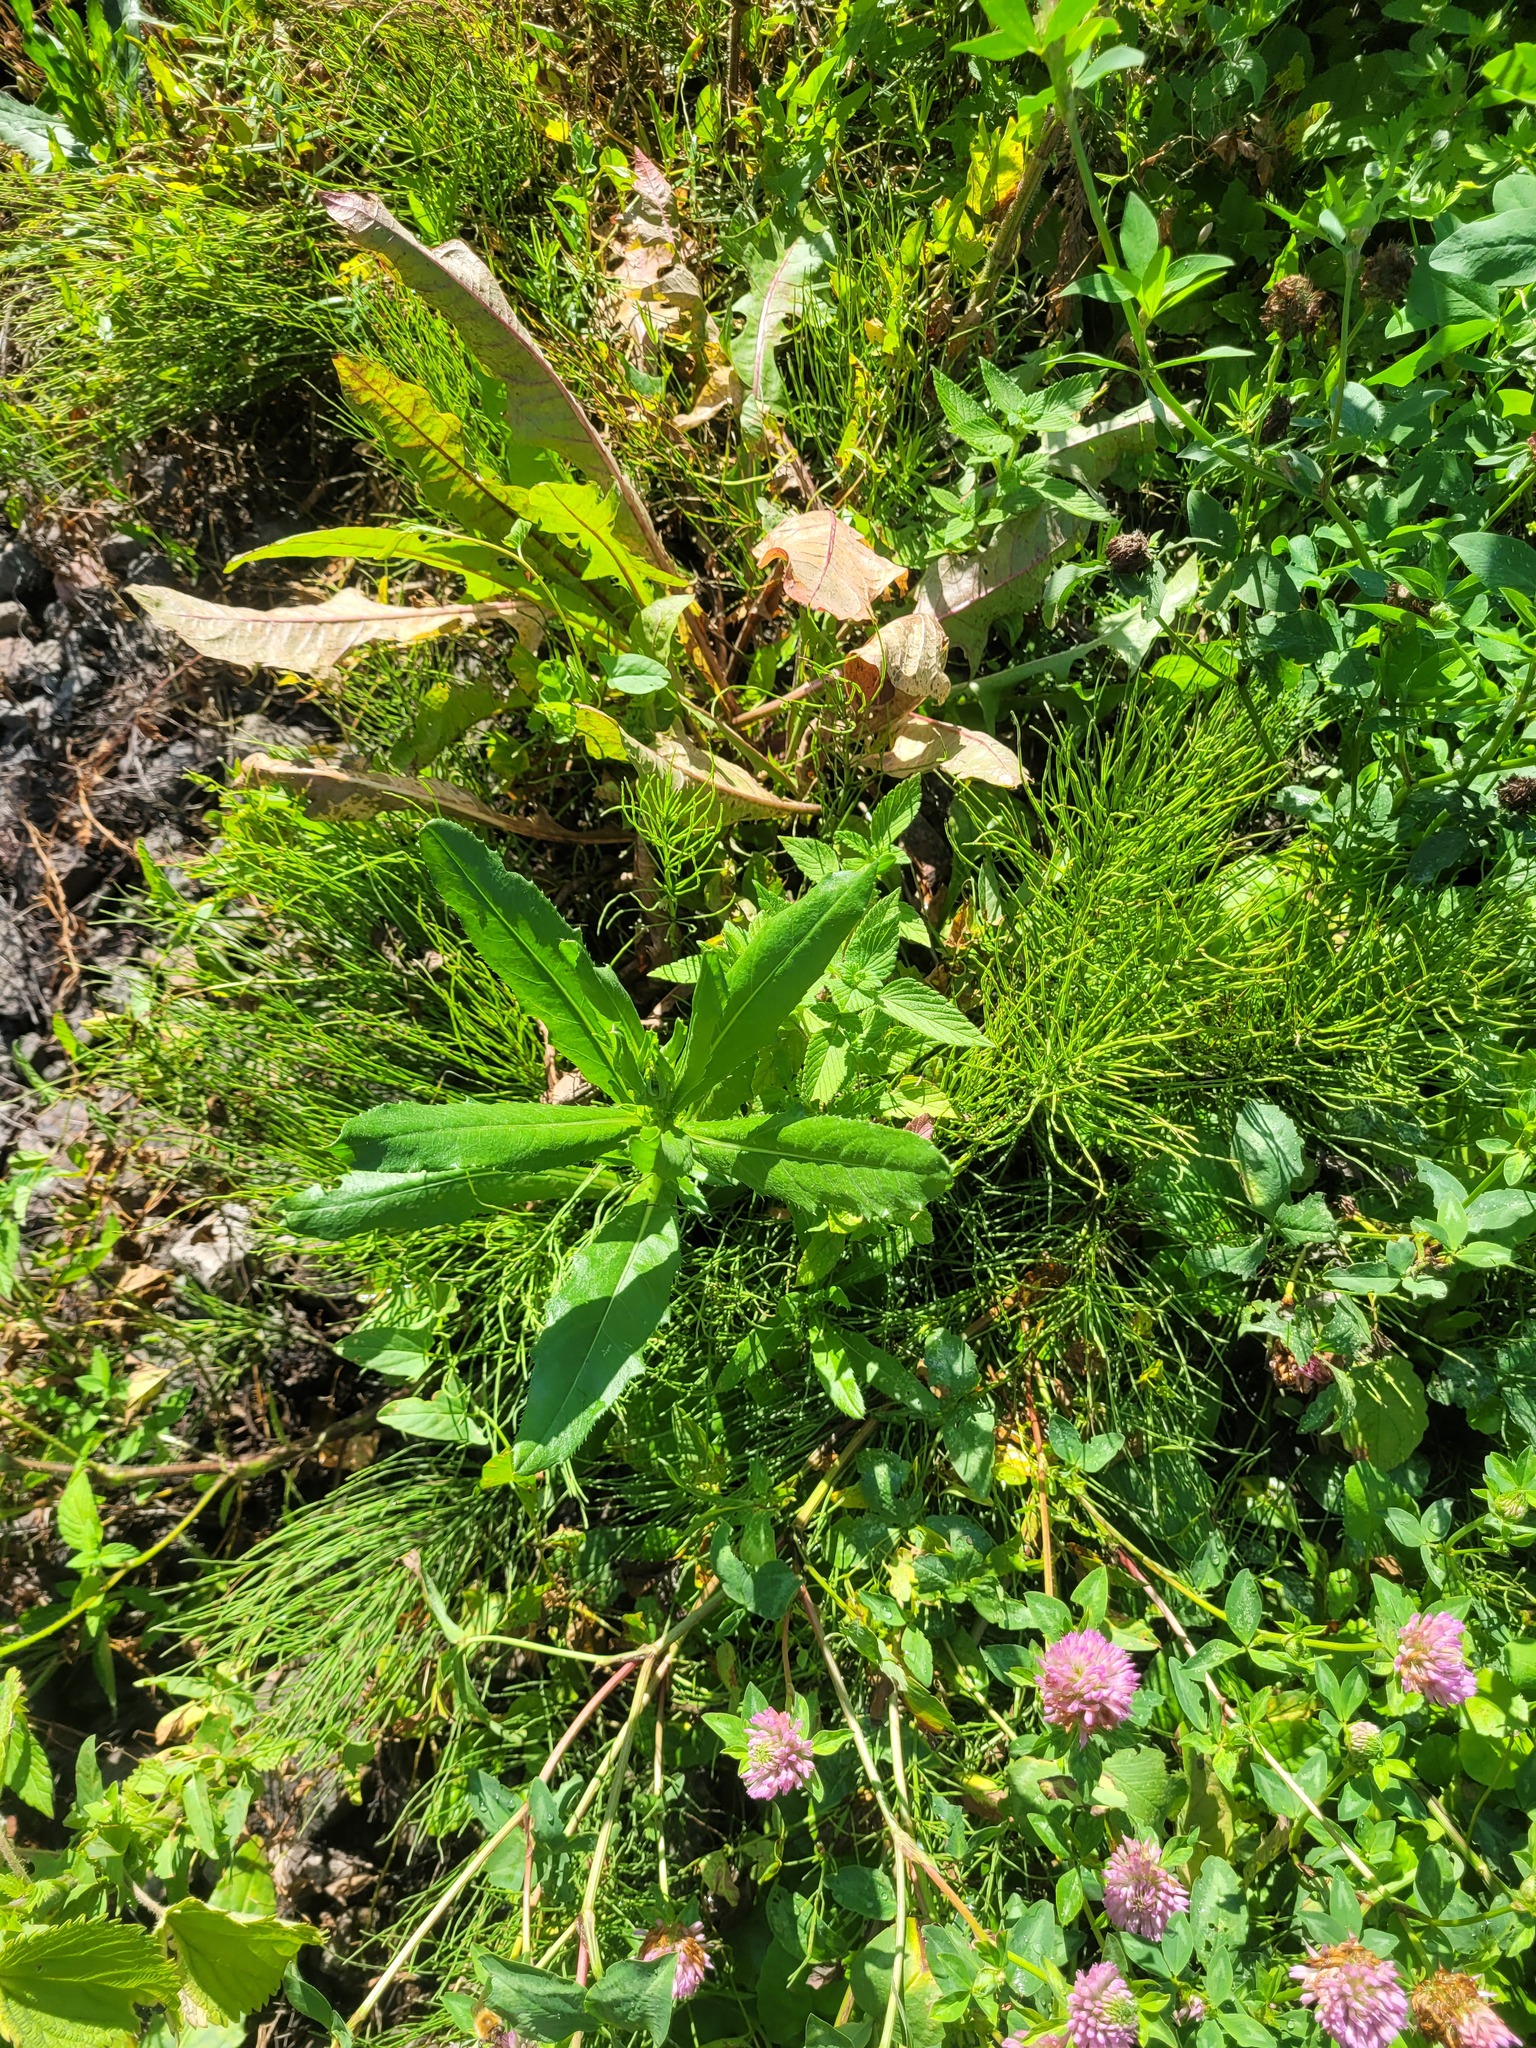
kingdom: Plantae
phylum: Tracheophyta
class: Magnoliopsida
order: Asterales
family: Asteraceae
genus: Cirsium
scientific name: Cirsium arvense
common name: Creeping thistle
